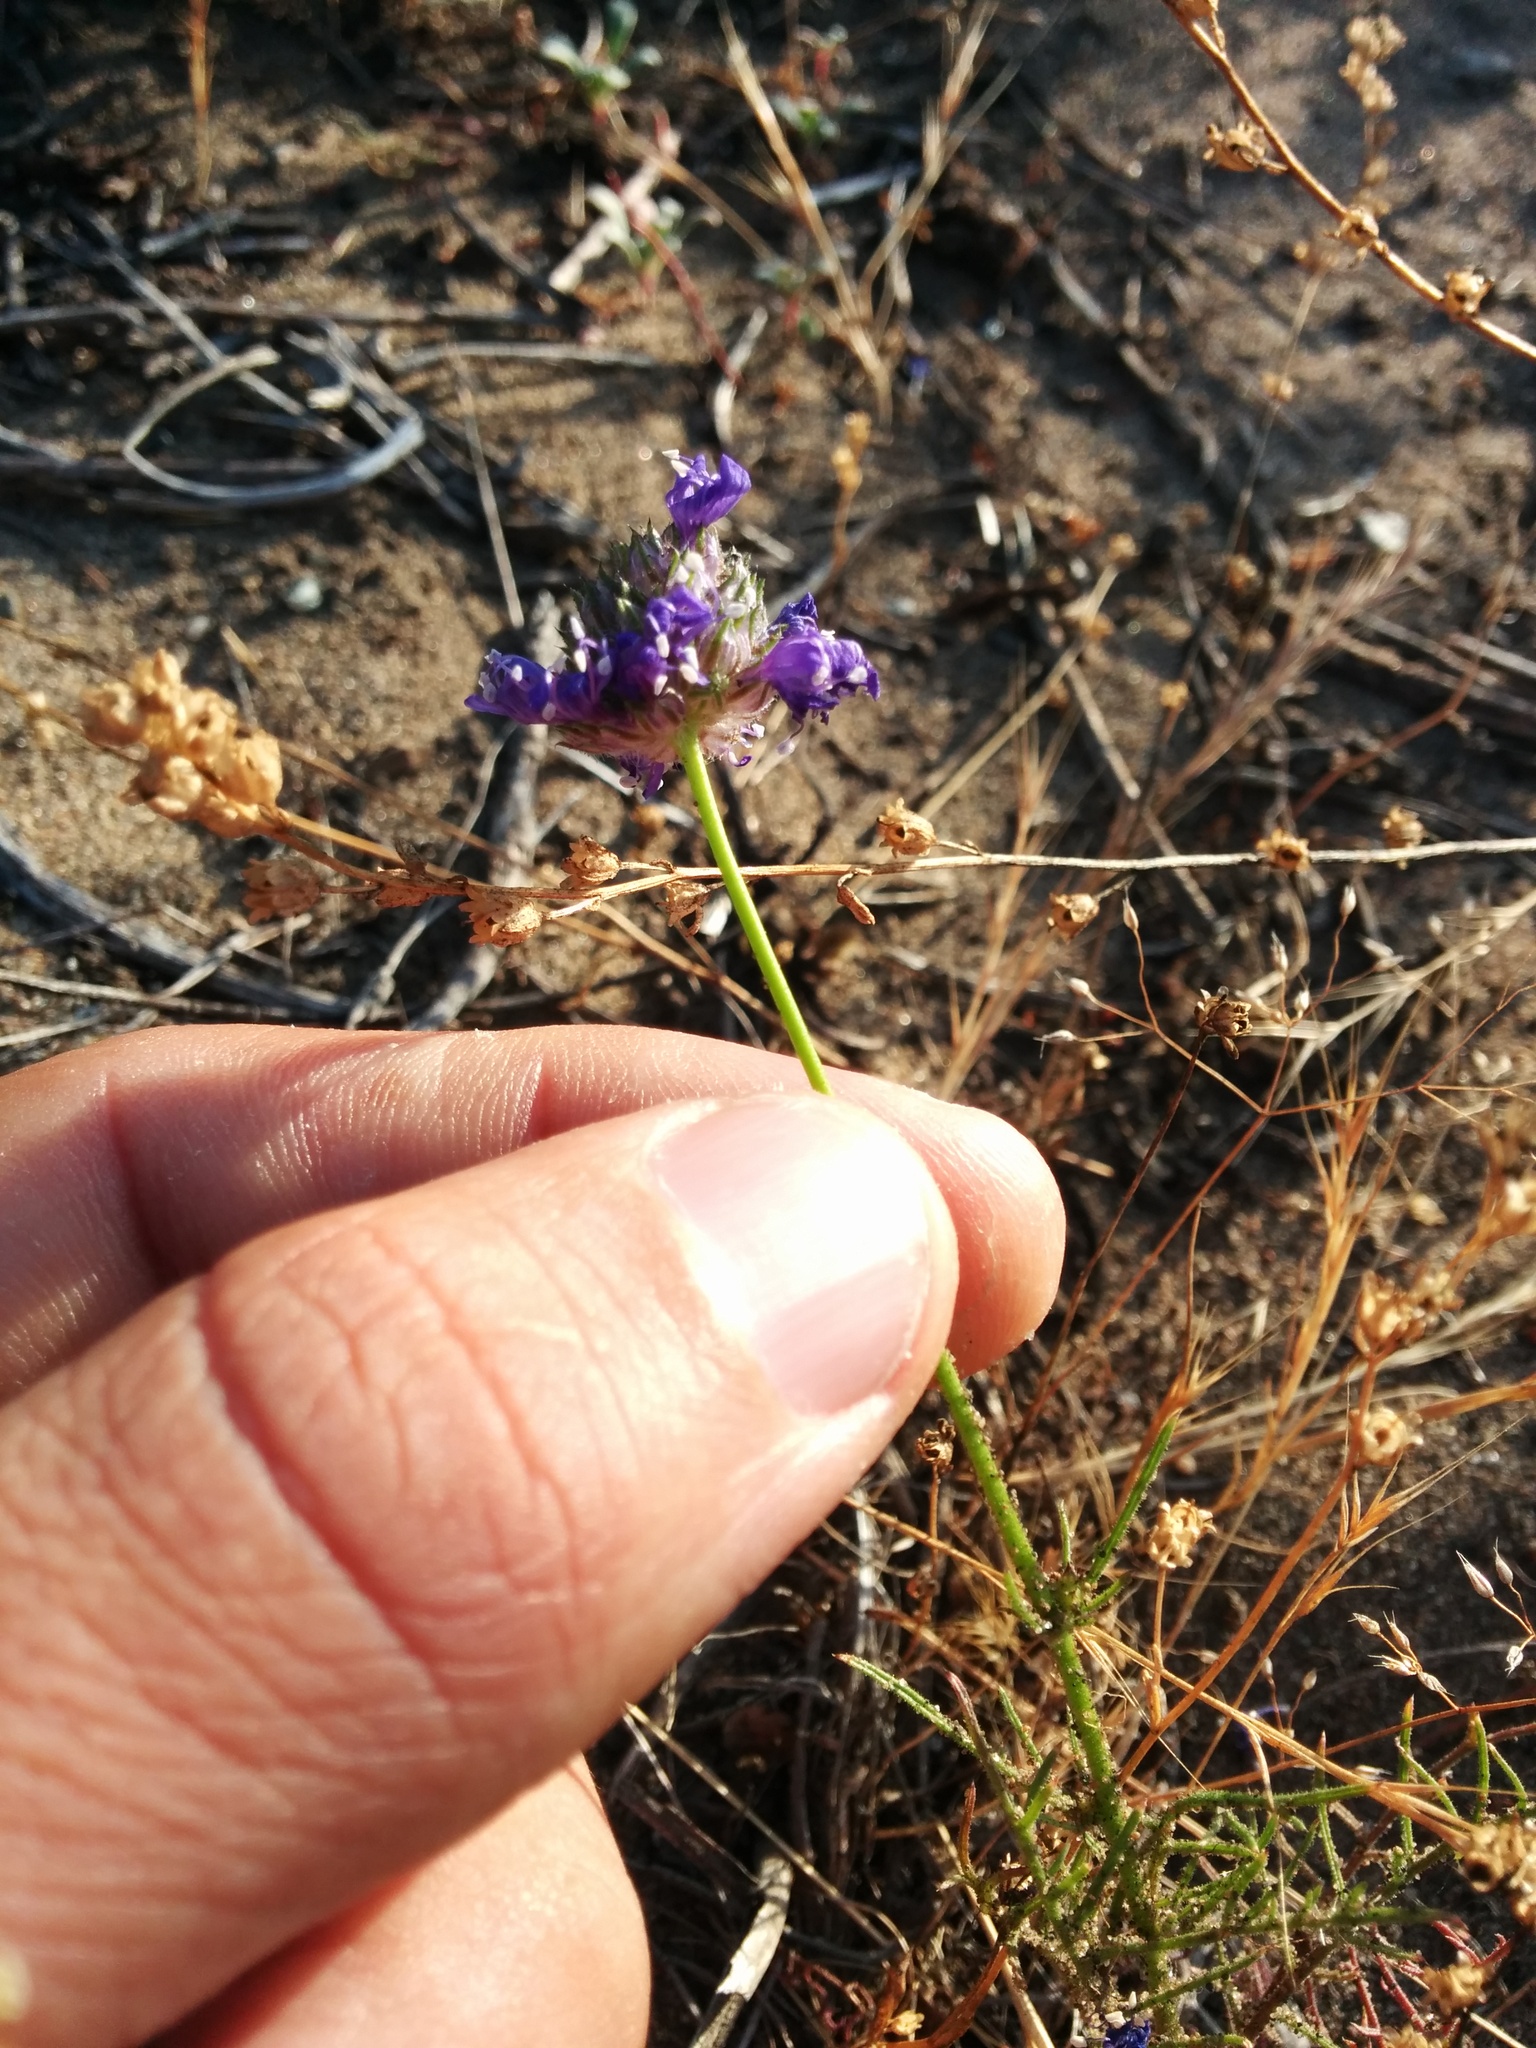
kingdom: Plantae
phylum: Tracheophyta
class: Magnoliopsida
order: Ericales
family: Polemoniaceae
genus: Gilia
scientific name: Gilia capitata
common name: Bluehead gilia
